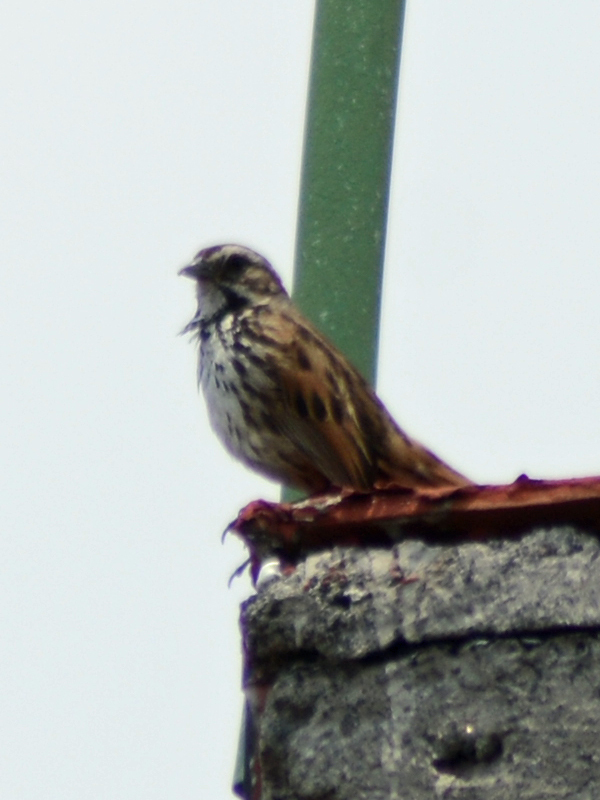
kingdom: Animalia
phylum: Chordata
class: Aves
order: Passeriformes
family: Passerellidae
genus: Melospiza
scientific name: Melospiza melodia
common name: Song sparrow
